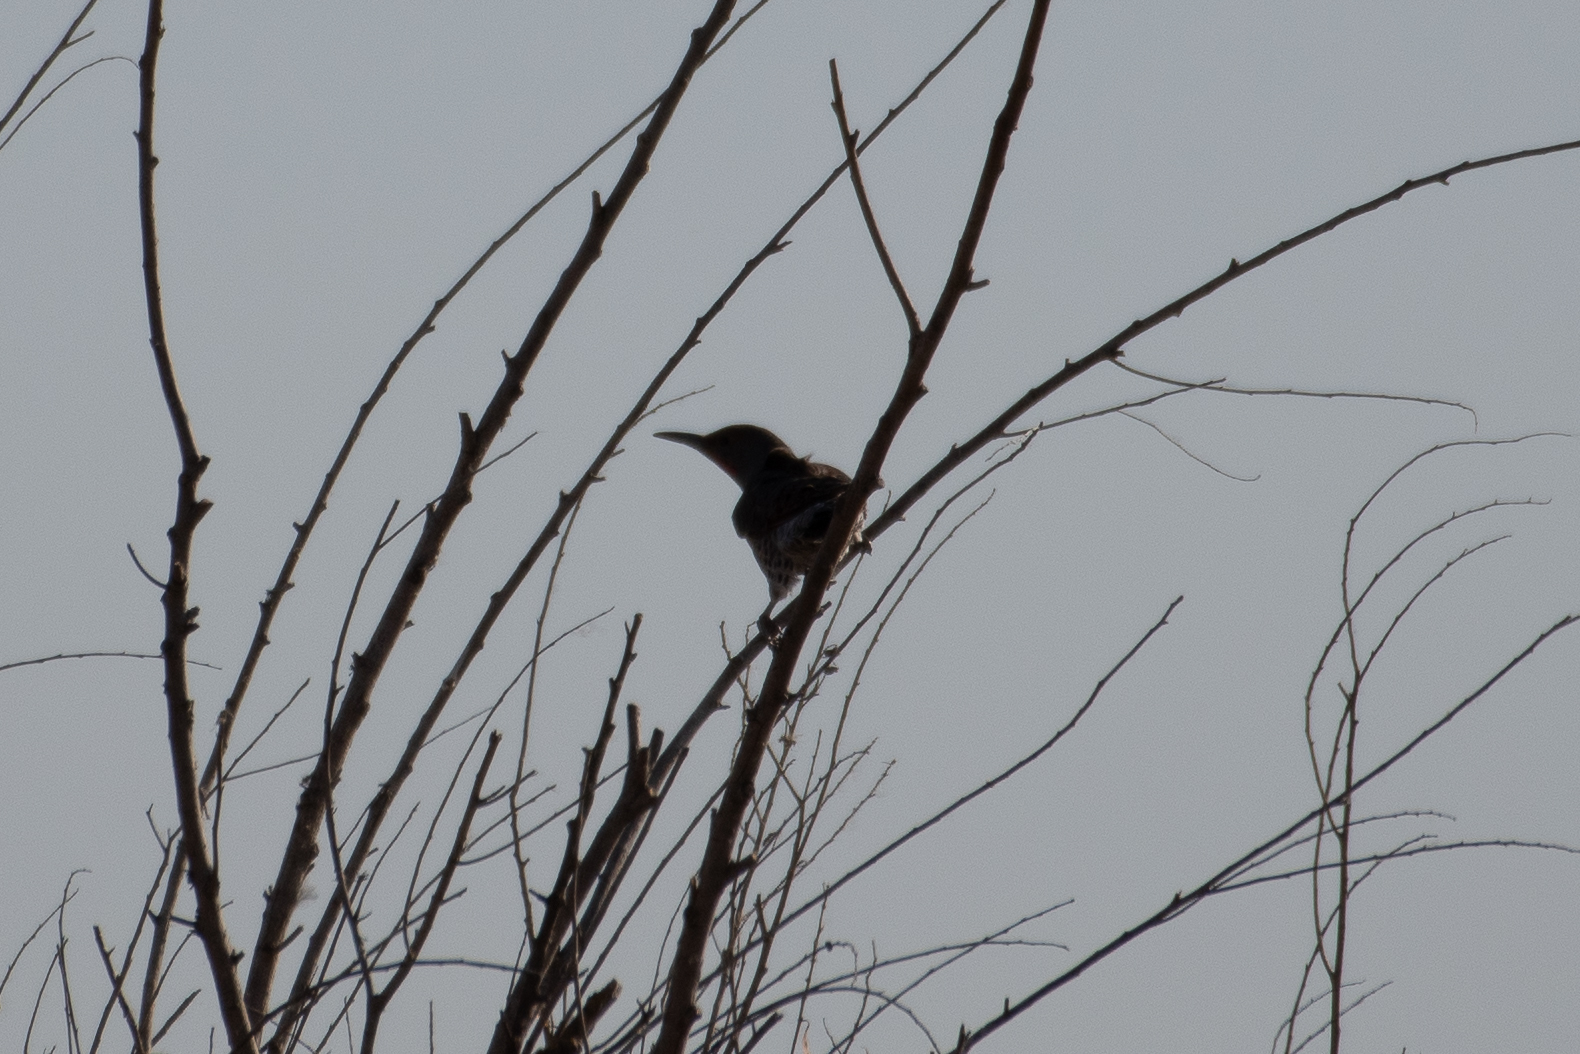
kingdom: Animalia
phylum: Chordata
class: Aves
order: Piciformes
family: Picidae
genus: Colaptes
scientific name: Colaptes auratus
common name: Northern flicker
